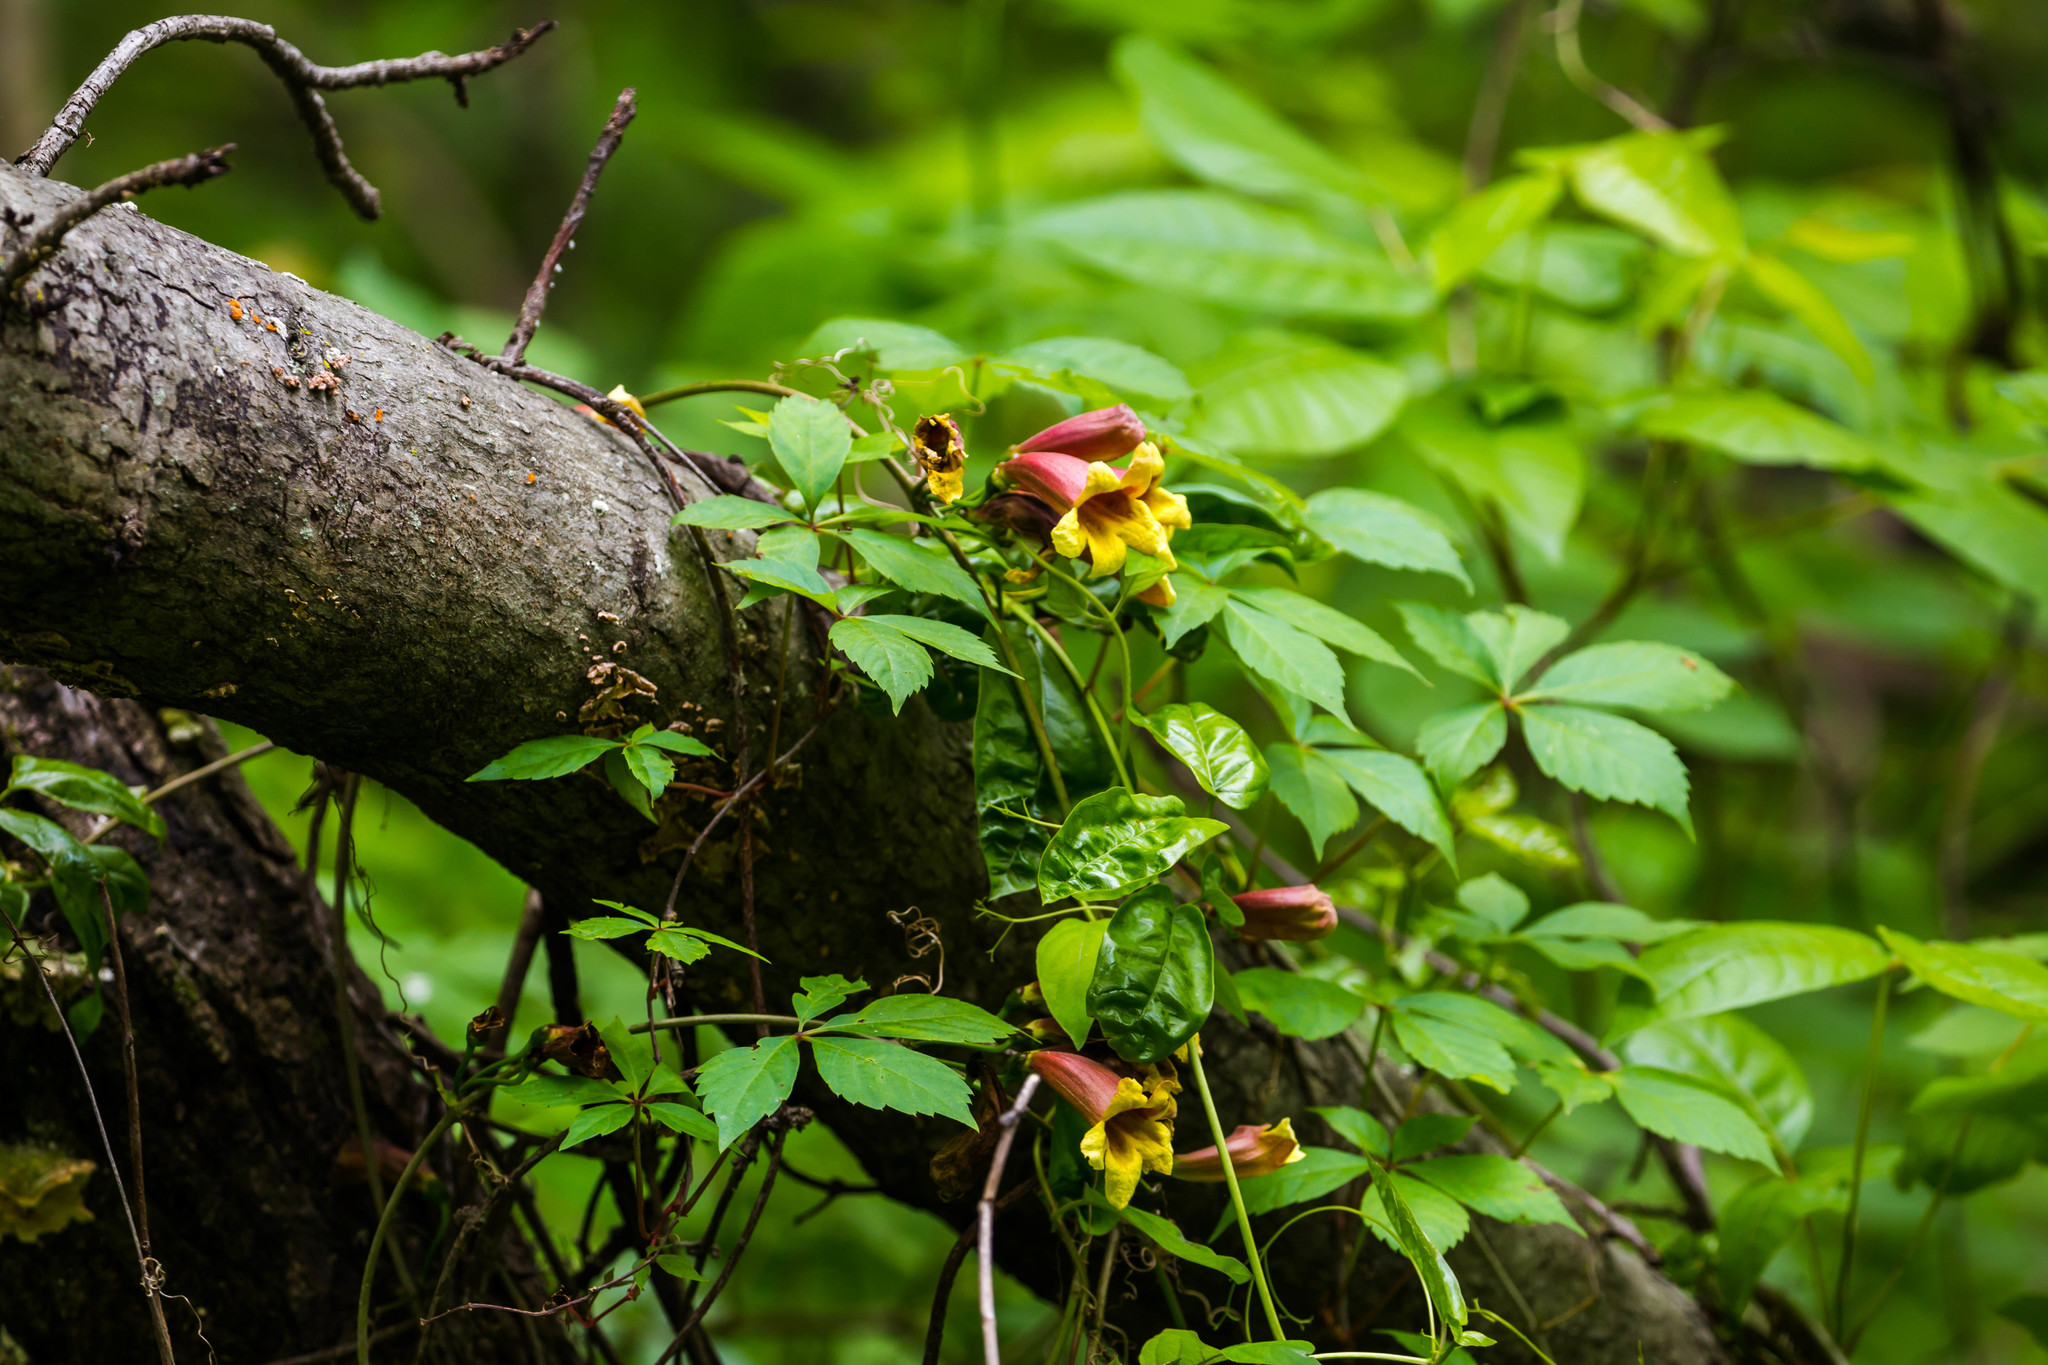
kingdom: Plantae
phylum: Tracheophyta
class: Magnoliopsida
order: Lamiales
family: Bignoniaceae
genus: Bignonia
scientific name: Bignonia capreolata
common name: Crossvine
